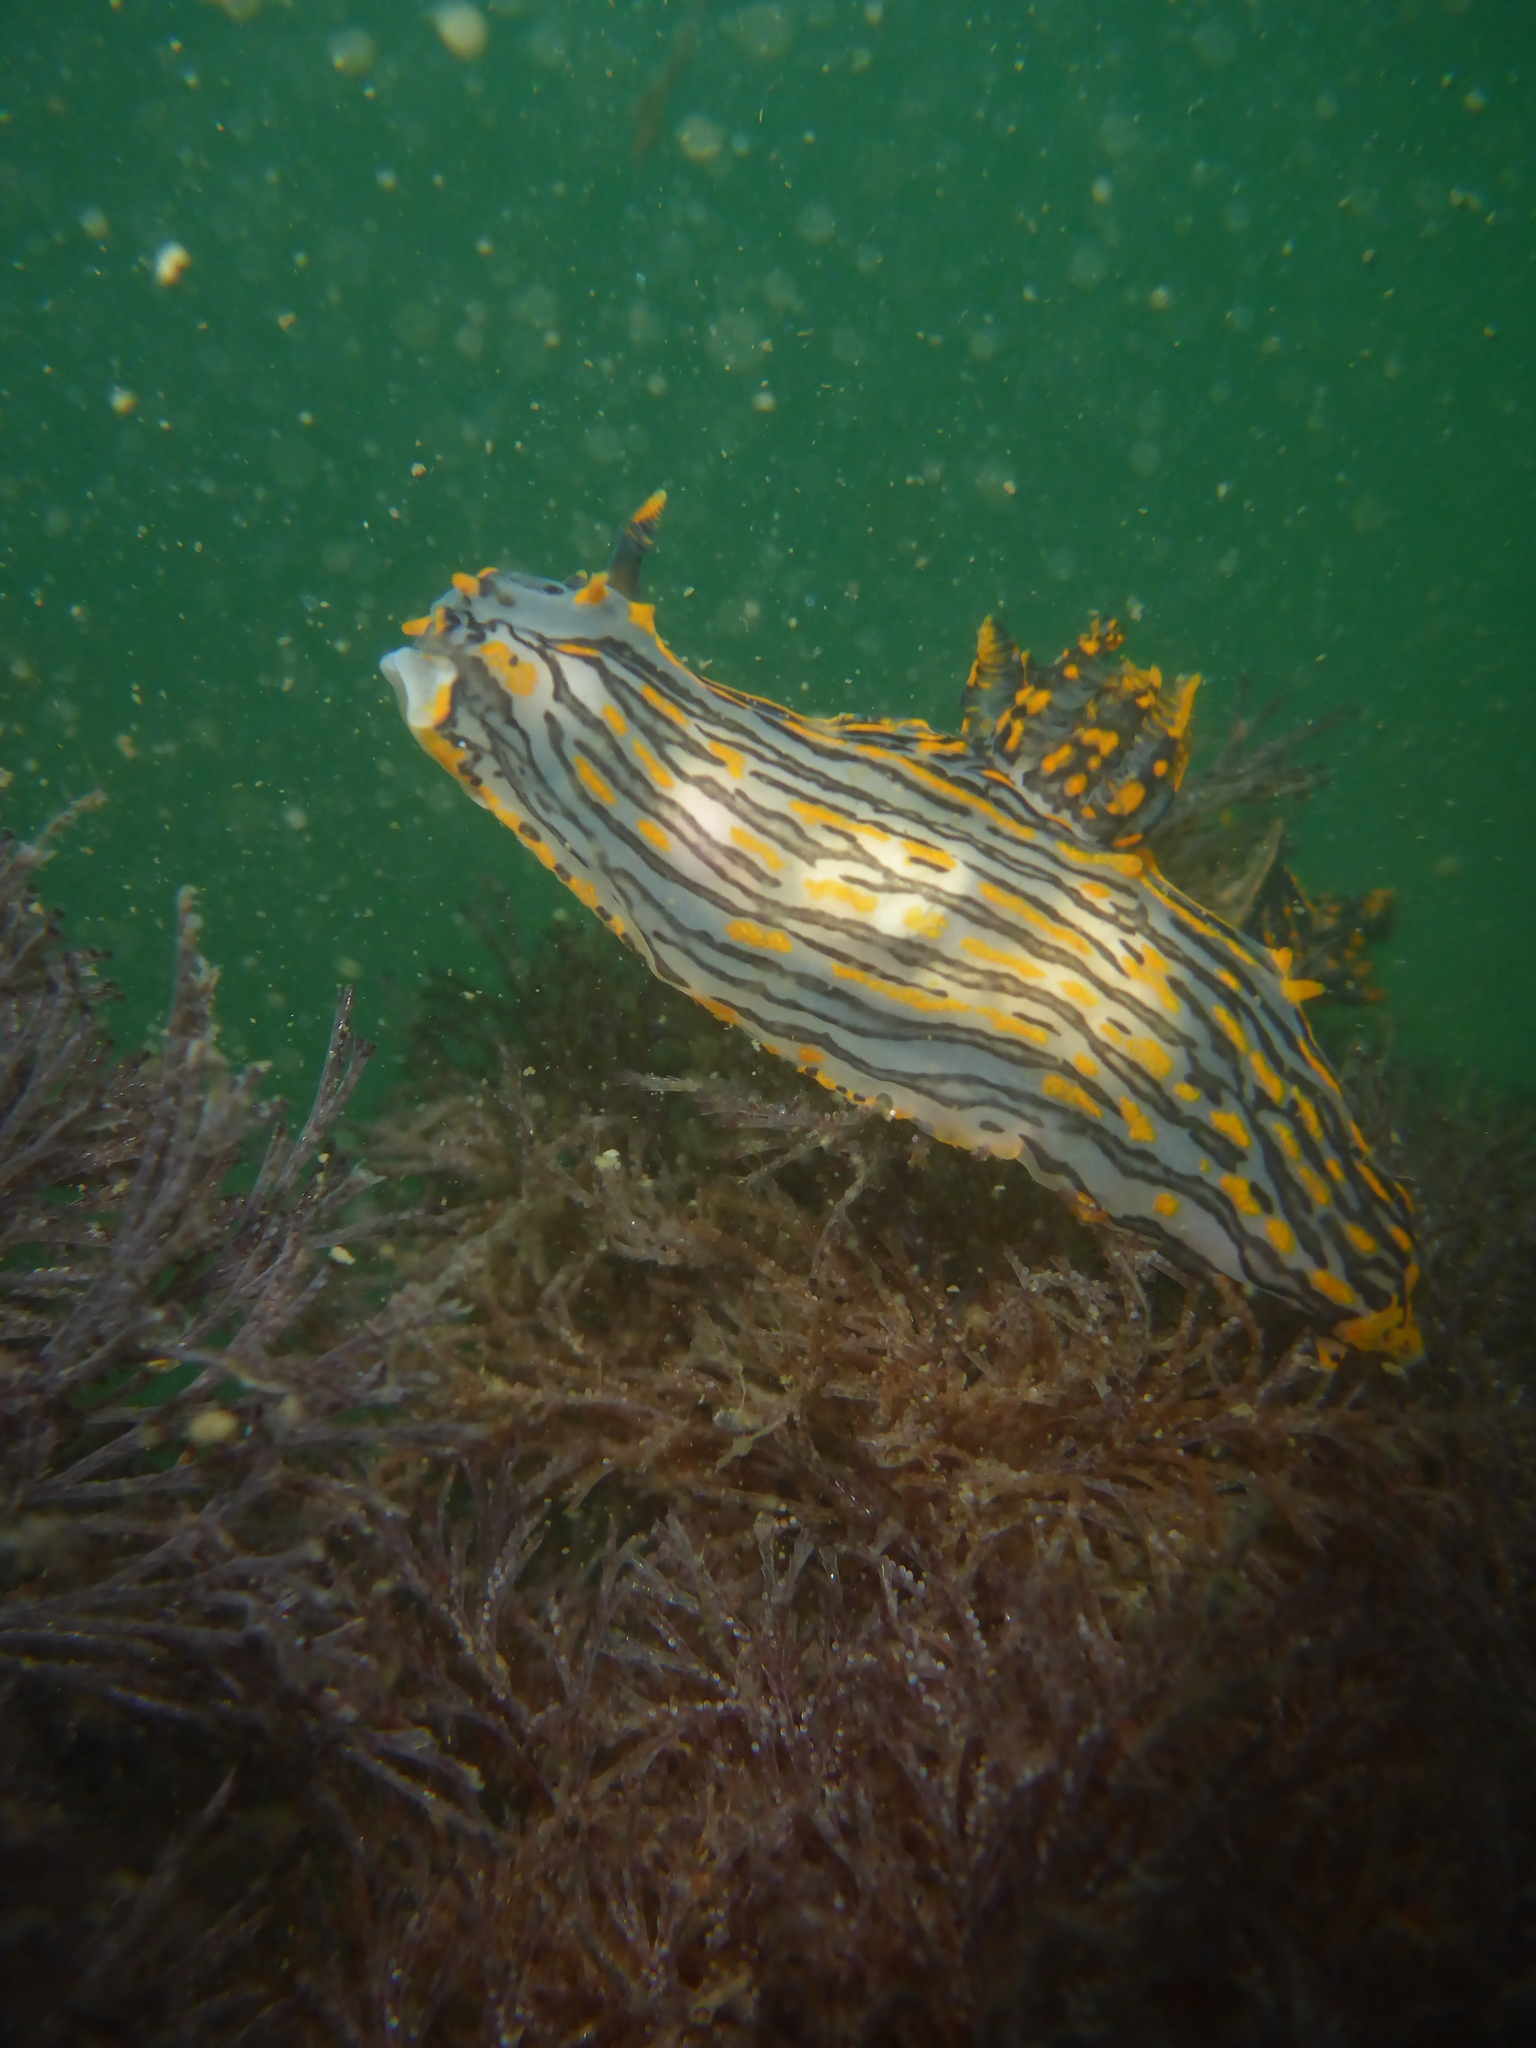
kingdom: Animalia
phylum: Mollusca
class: Gastropoda
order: Nudibranchia
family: Polyceridae
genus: Polycera
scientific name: Polycera atra
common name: Orange-spike polycera
